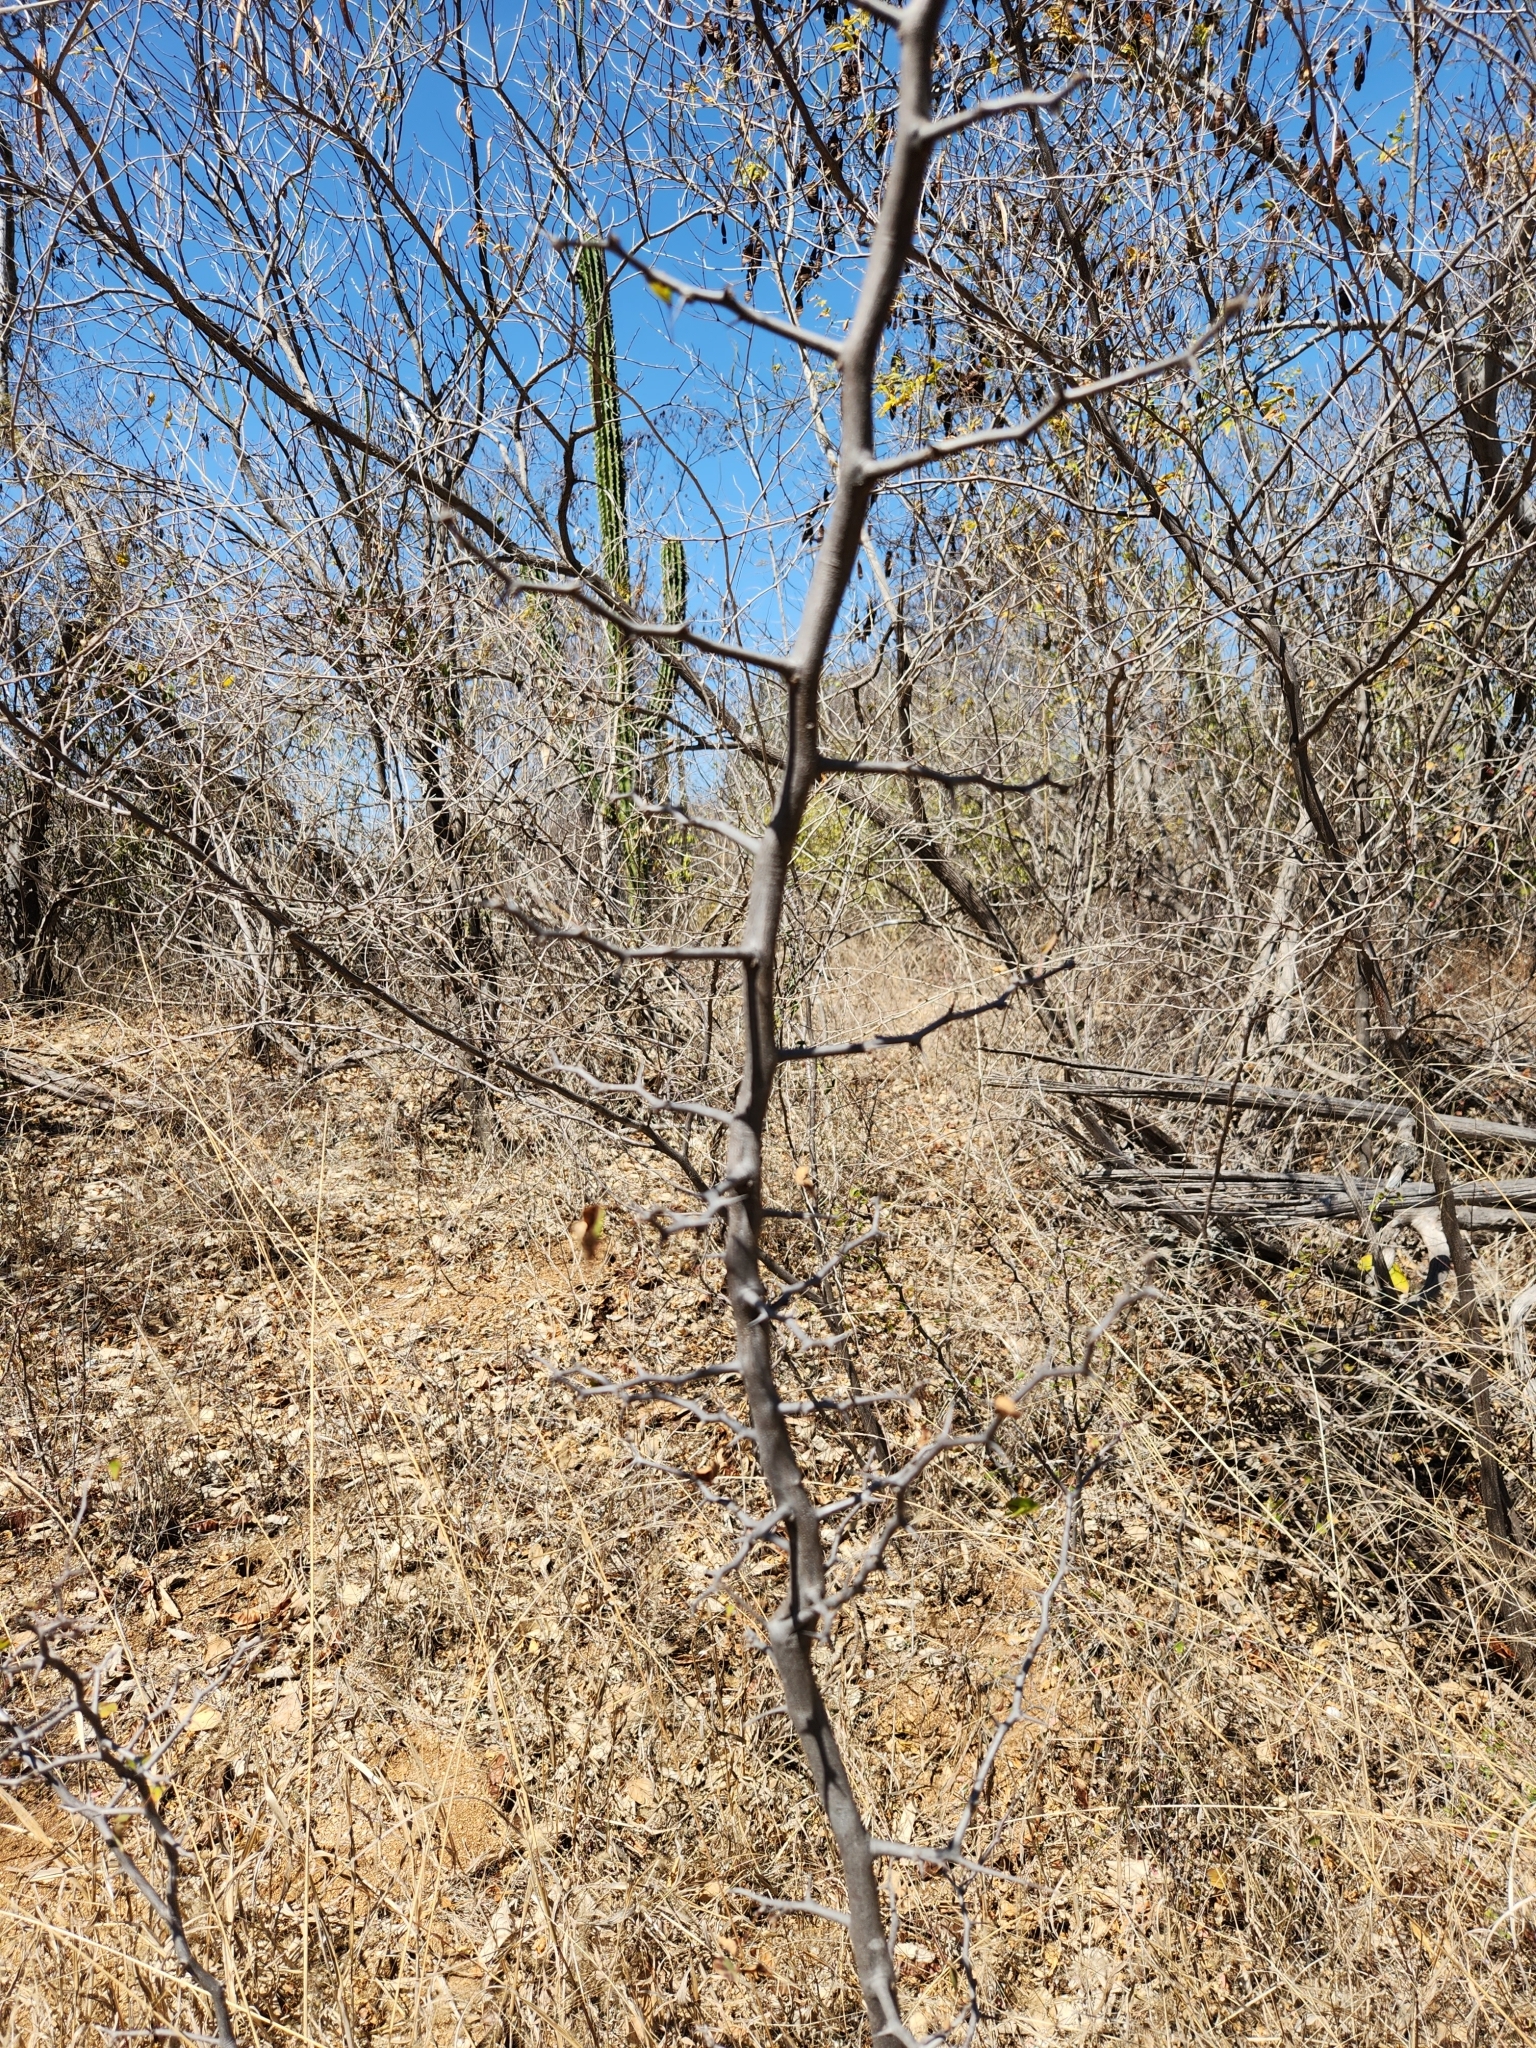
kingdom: Plantae
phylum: Tracheophyta
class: Magnoliopsida
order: Fabales
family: Fabaceae
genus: Haematoxylum
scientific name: Haematoxylum brasiletto
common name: Peachwood
